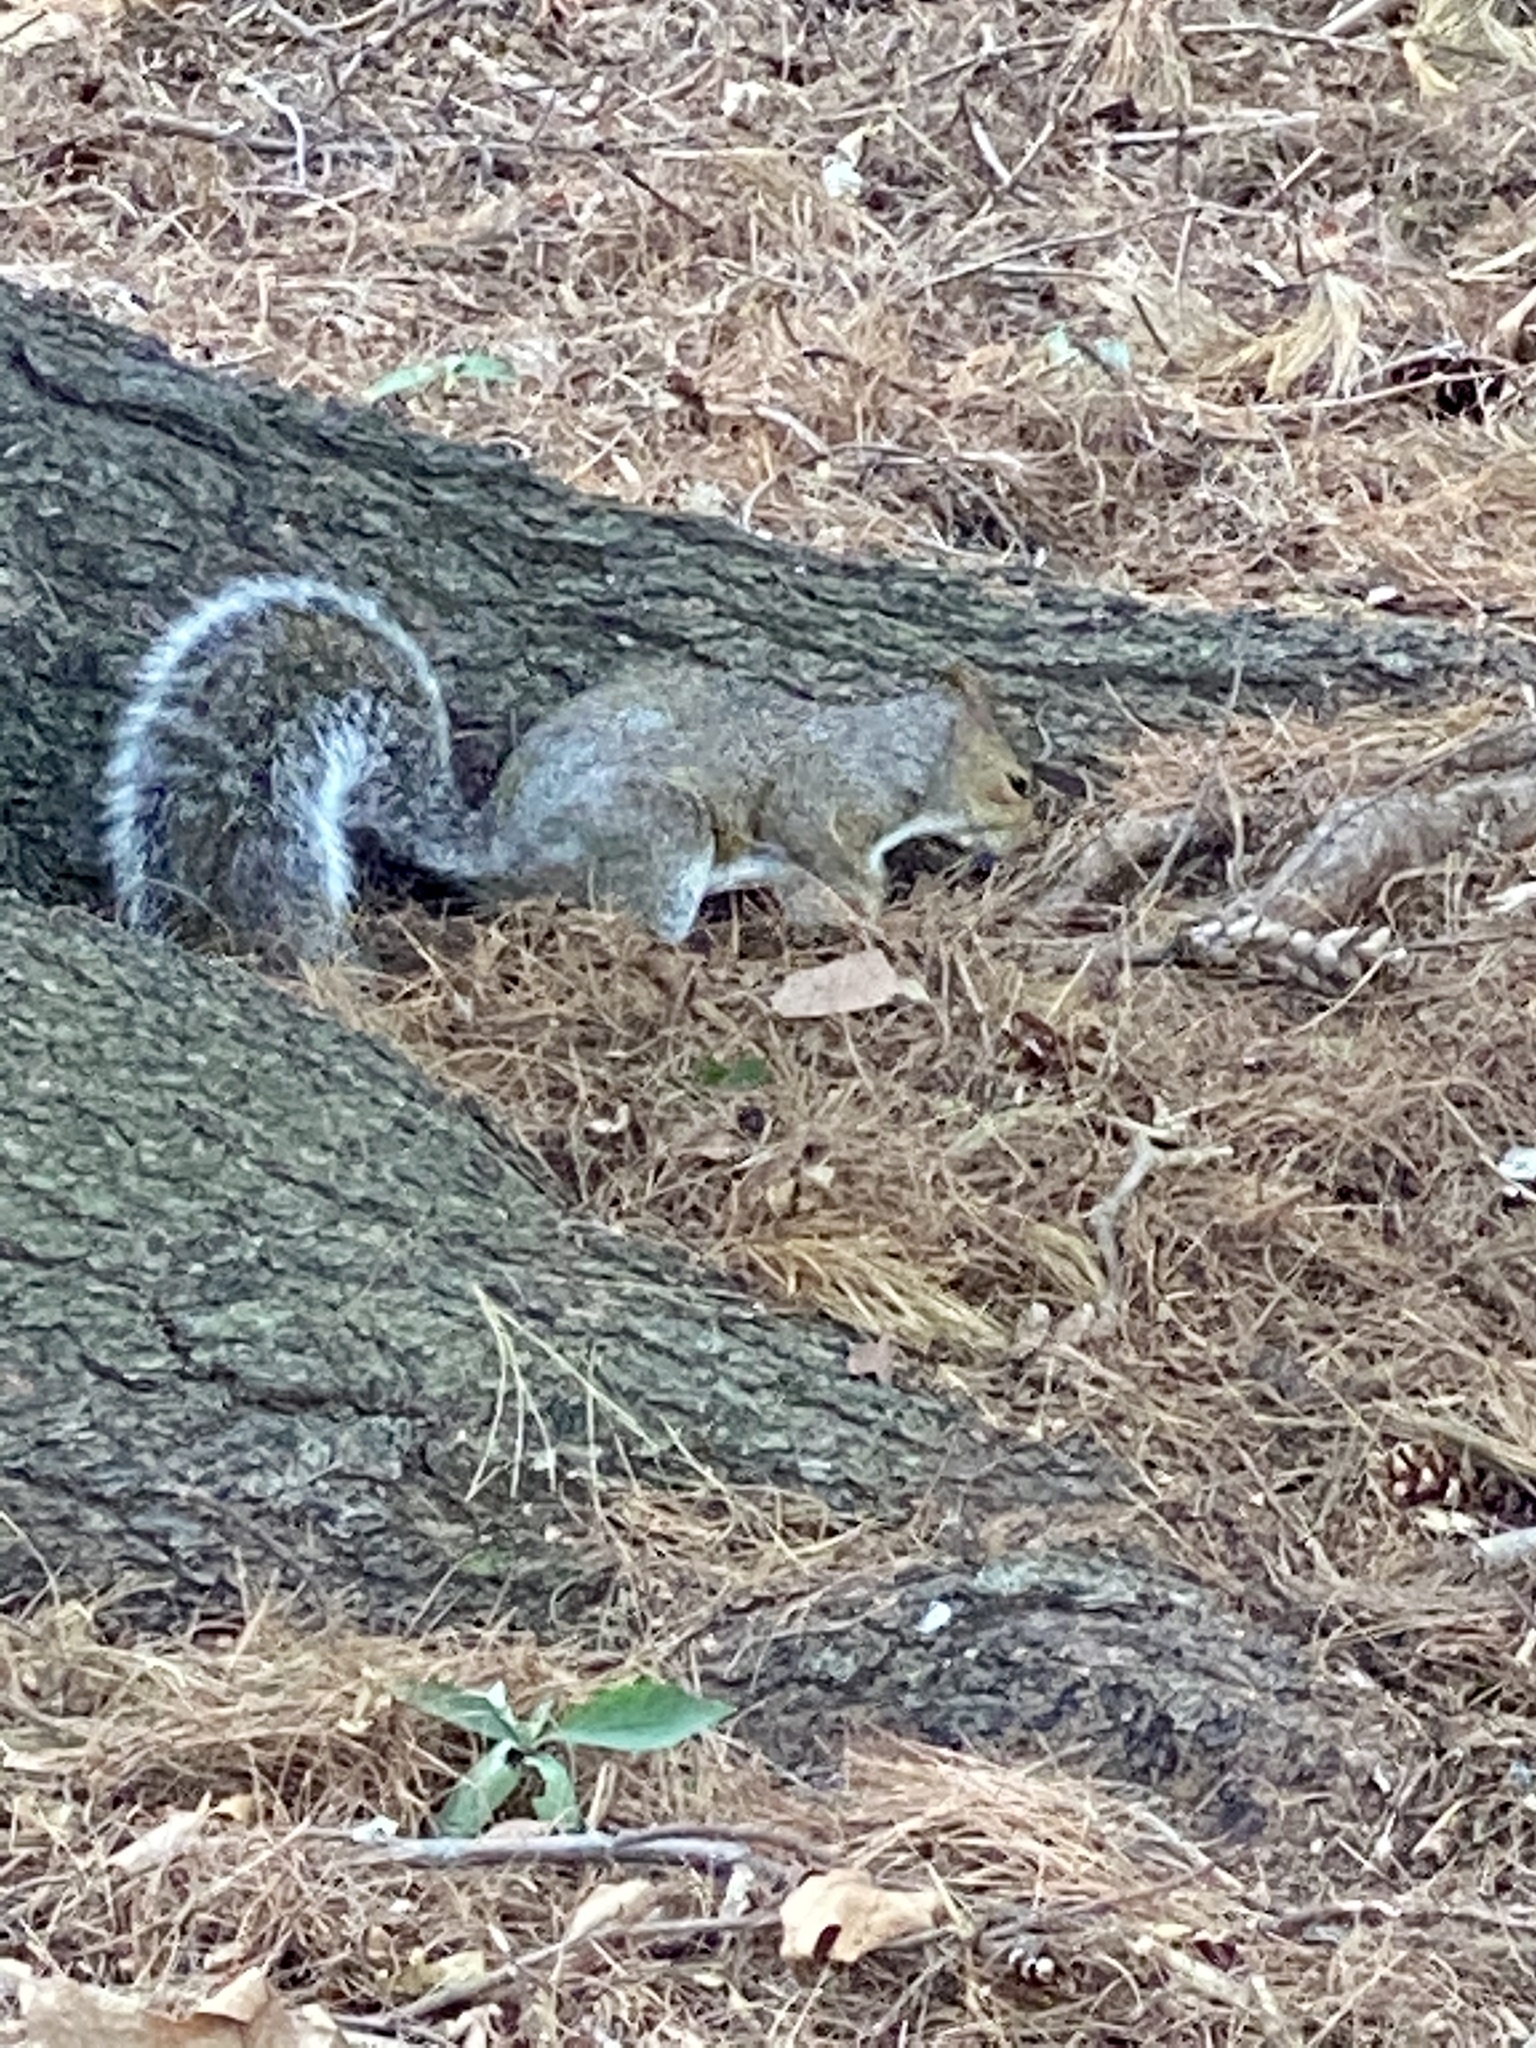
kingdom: Animalia
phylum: Chordata
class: Mammalia
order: Rodentia
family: Sciuridae
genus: Sciurus
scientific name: Sciurus carolinensis
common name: Eastern gray squirrel
